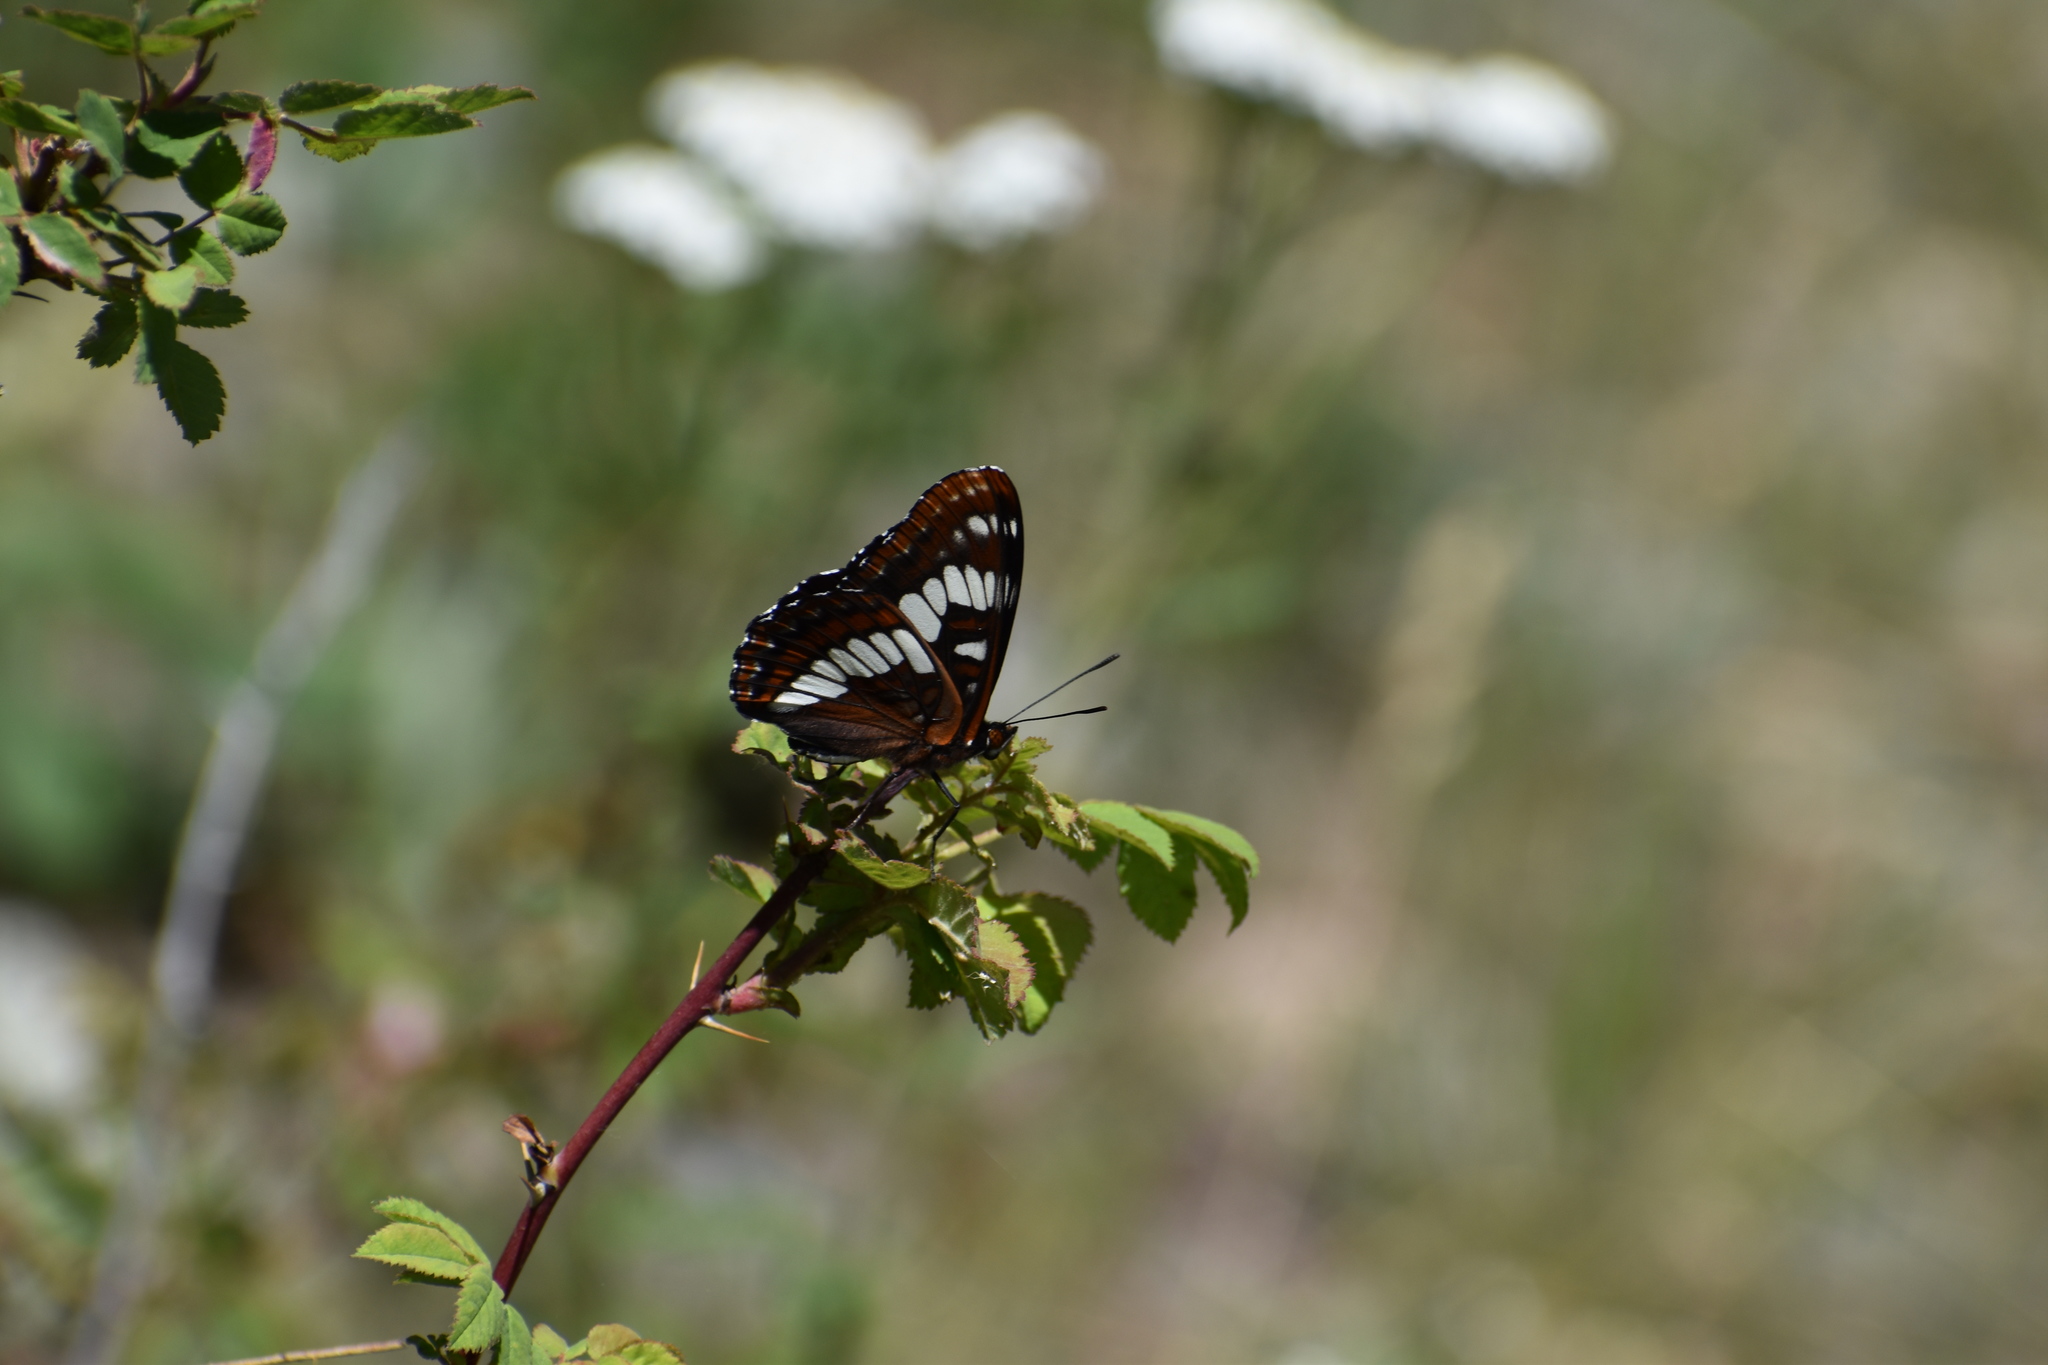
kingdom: Animalia
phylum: Arthropoda
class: Insecta
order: Lepidoptera
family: Nymphalidae
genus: Limenitis
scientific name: Limenitis lorquini
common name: Lorquin's admiral
